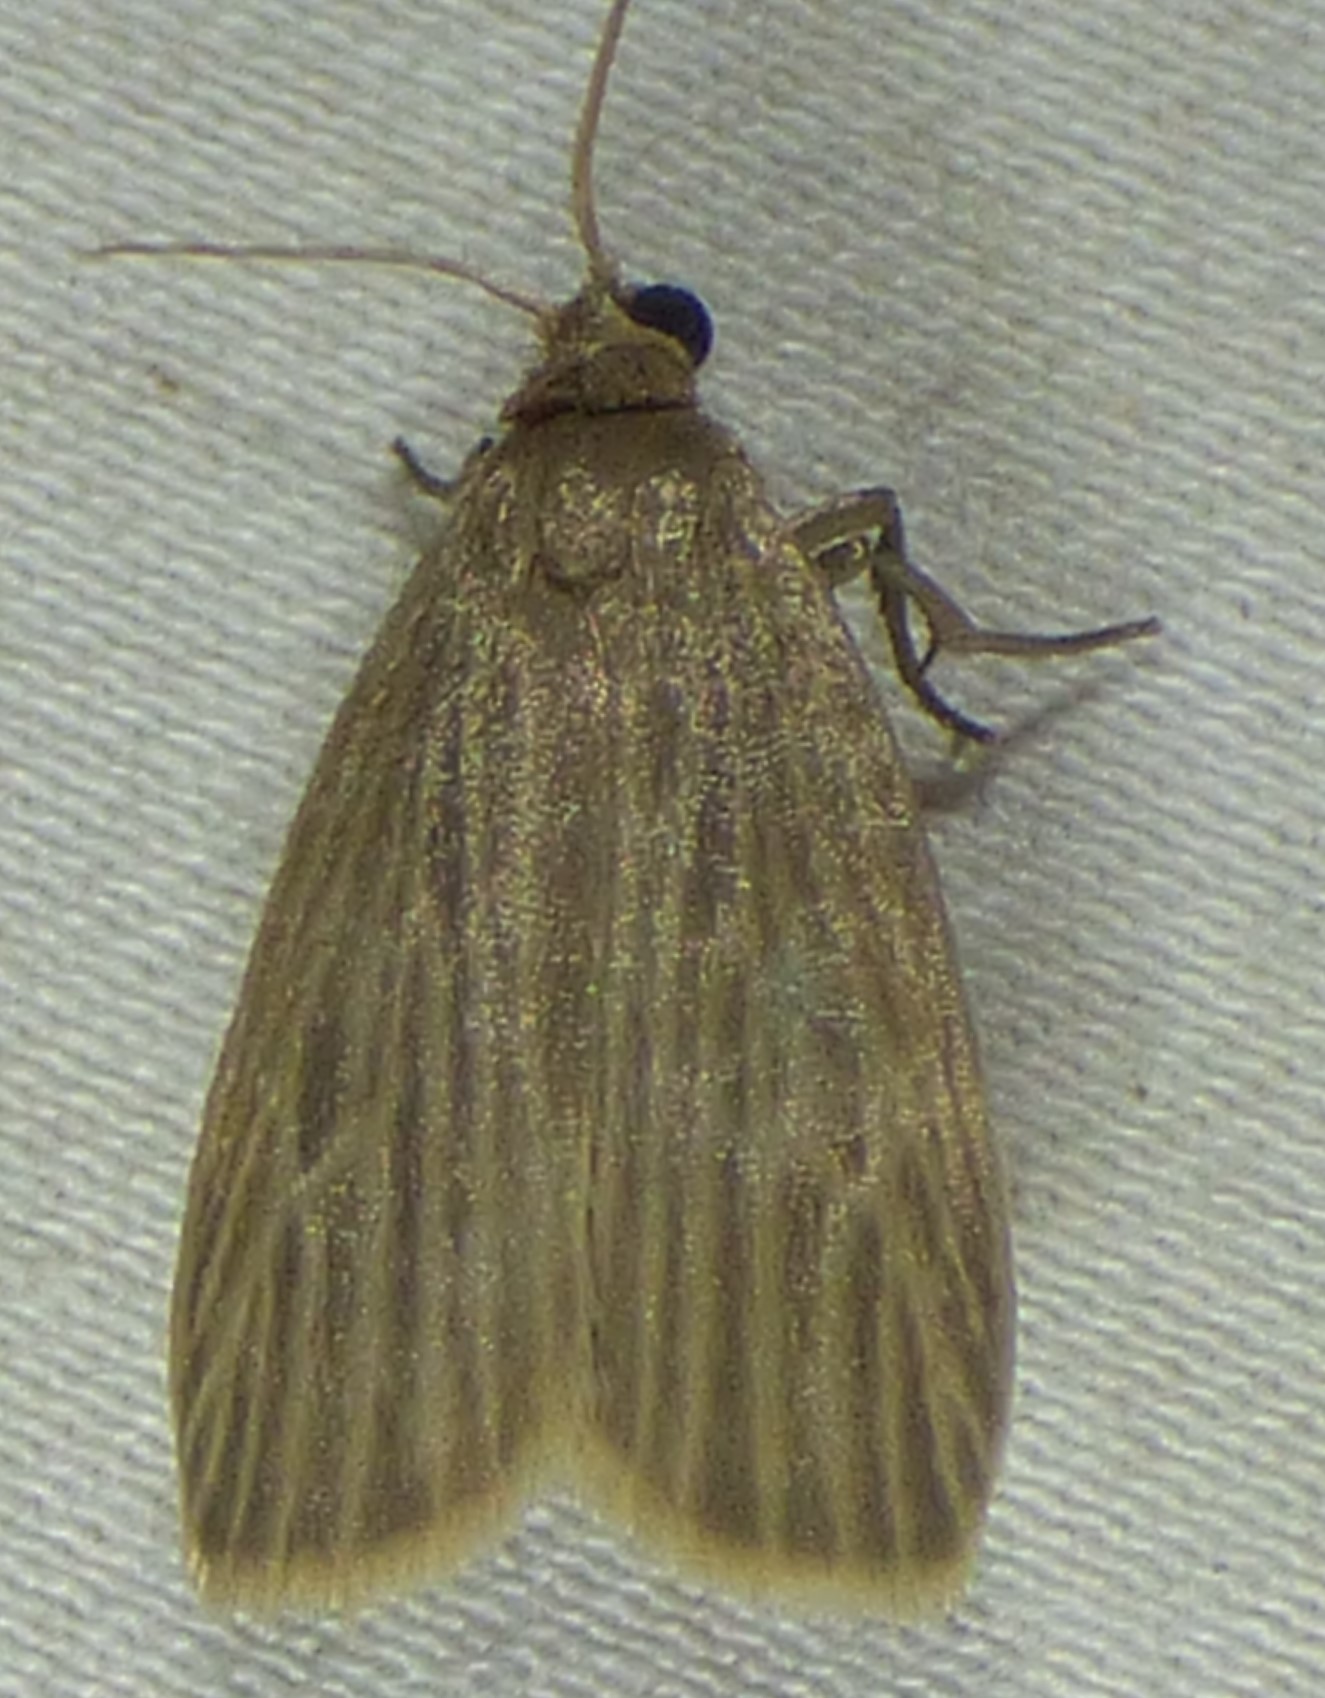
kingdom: Animalia
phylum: Arthropoda
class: Insecta
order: Lepidoptera
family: Erebidae
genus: Crambidia
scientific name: Crambidia pallida
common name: Pale lichen moth
